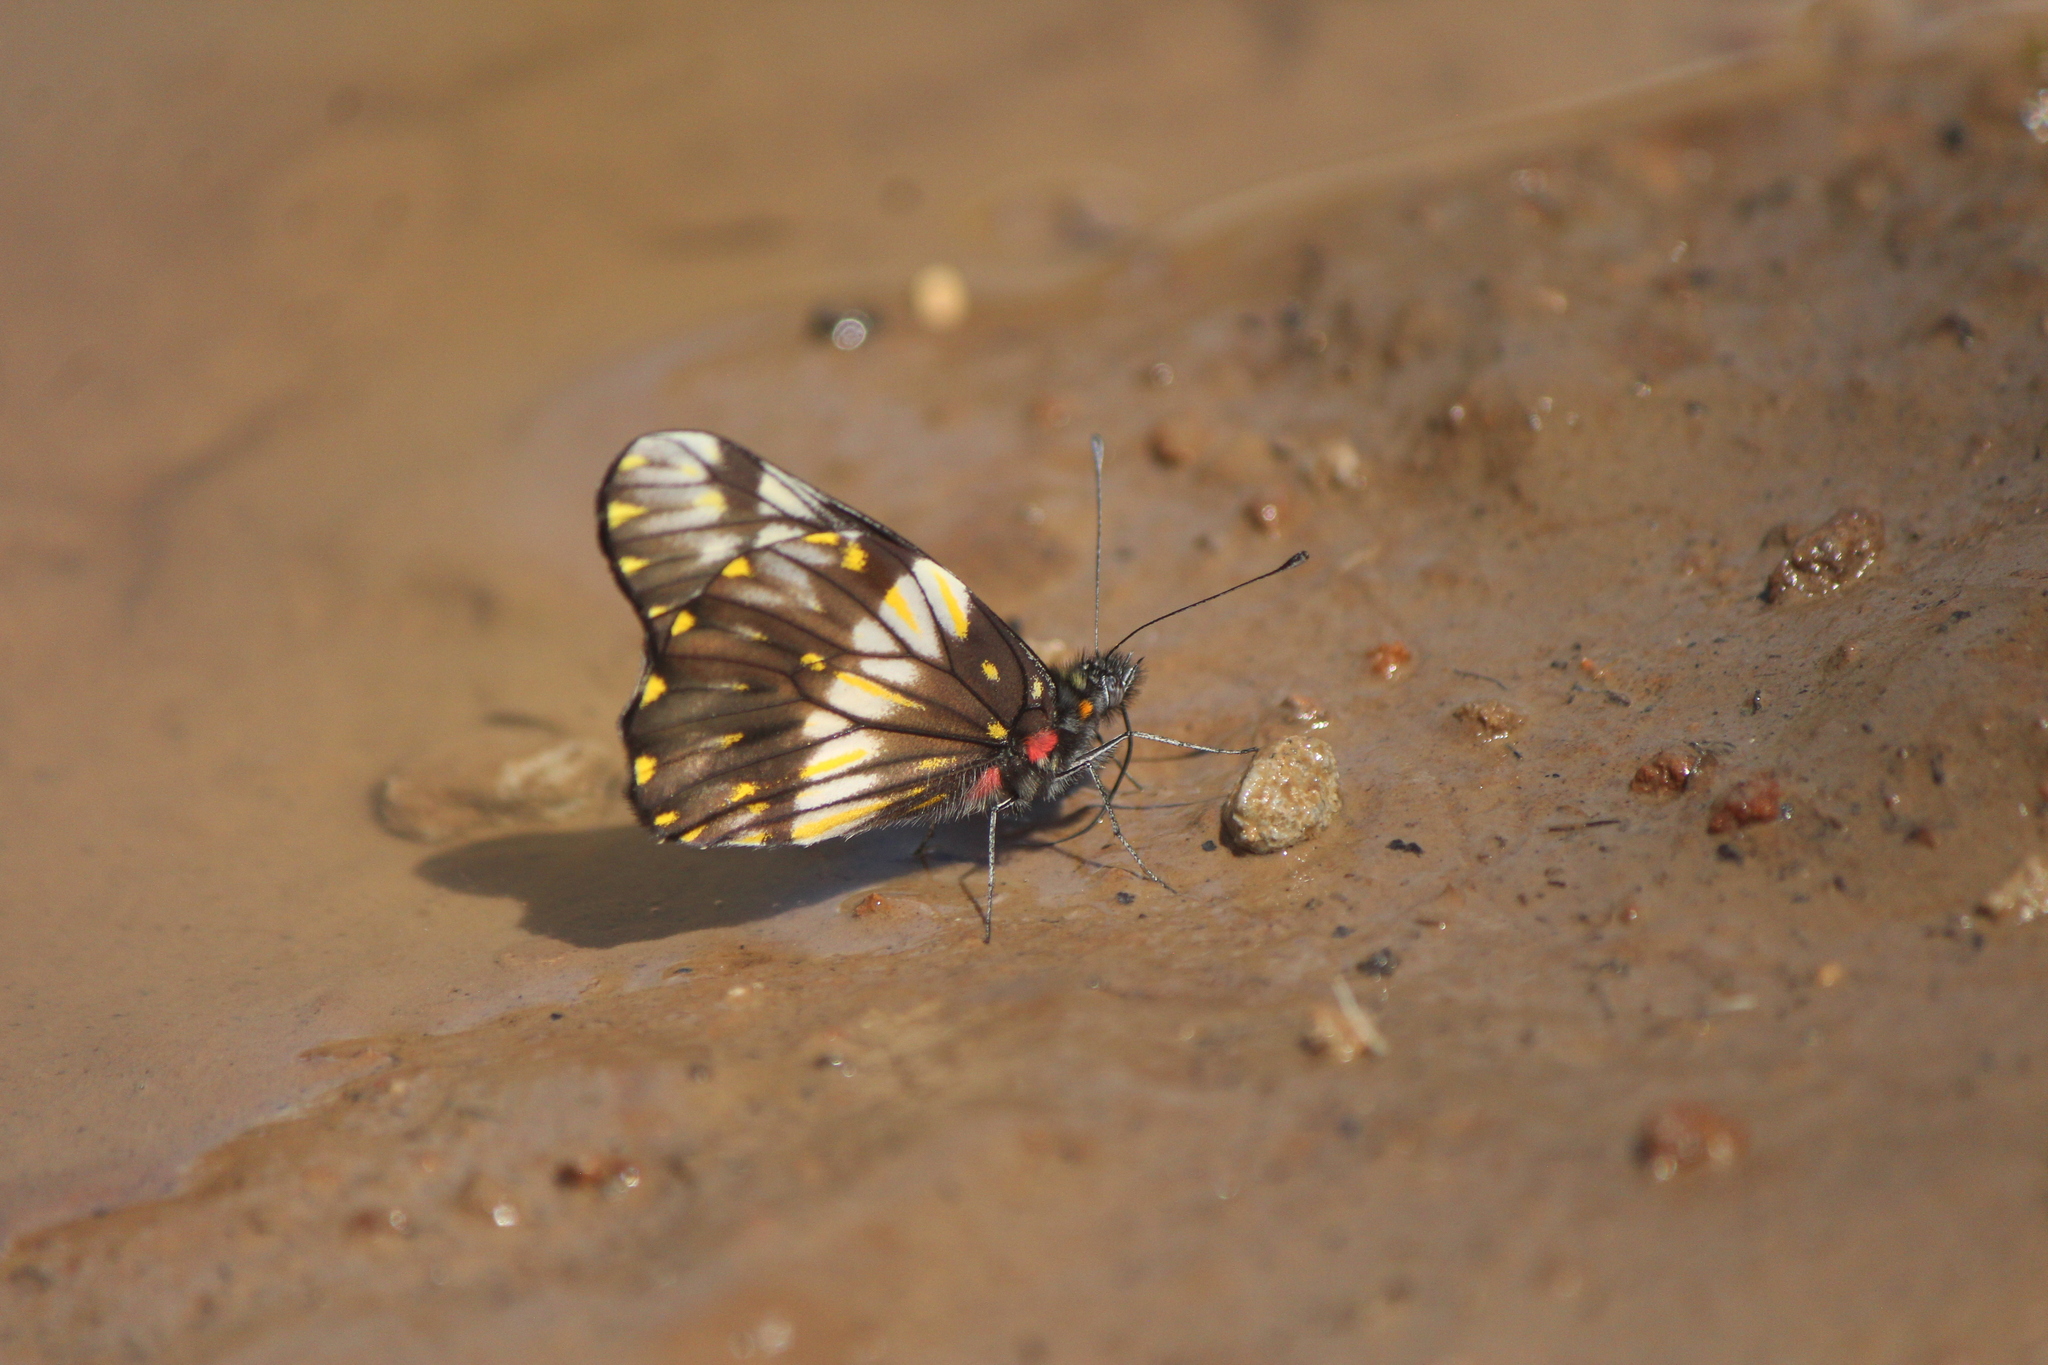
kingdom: Animalia
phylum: Arthropoda
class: Insecta
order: Lepidoptera
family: Pieridae
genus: Archonias
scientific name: Archonias nimbice
